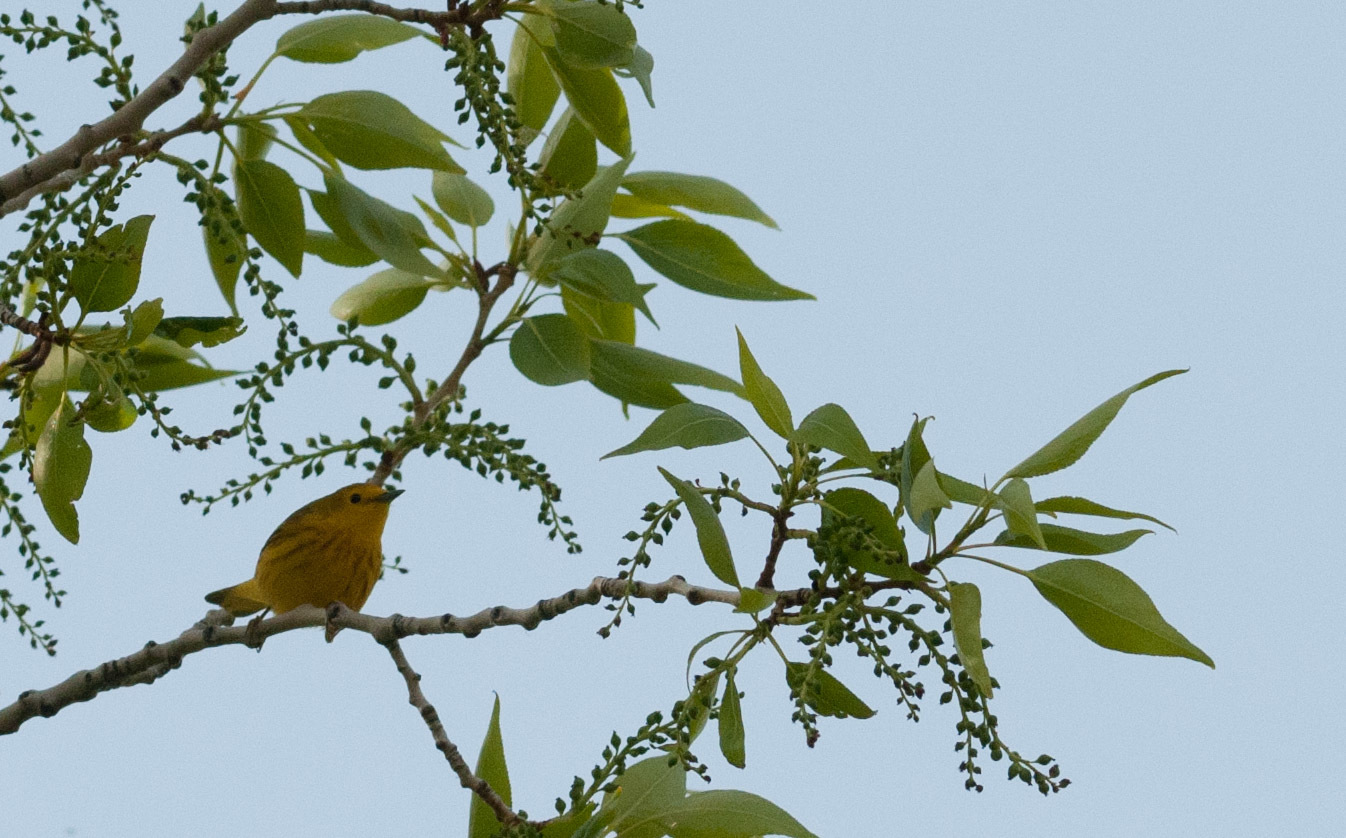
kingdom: Animalia
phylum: Chordata
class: Aves
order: Passeriformes
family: Parulidae
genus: Setophaga
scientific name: Setophaga petechia
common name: Yellow warbler
